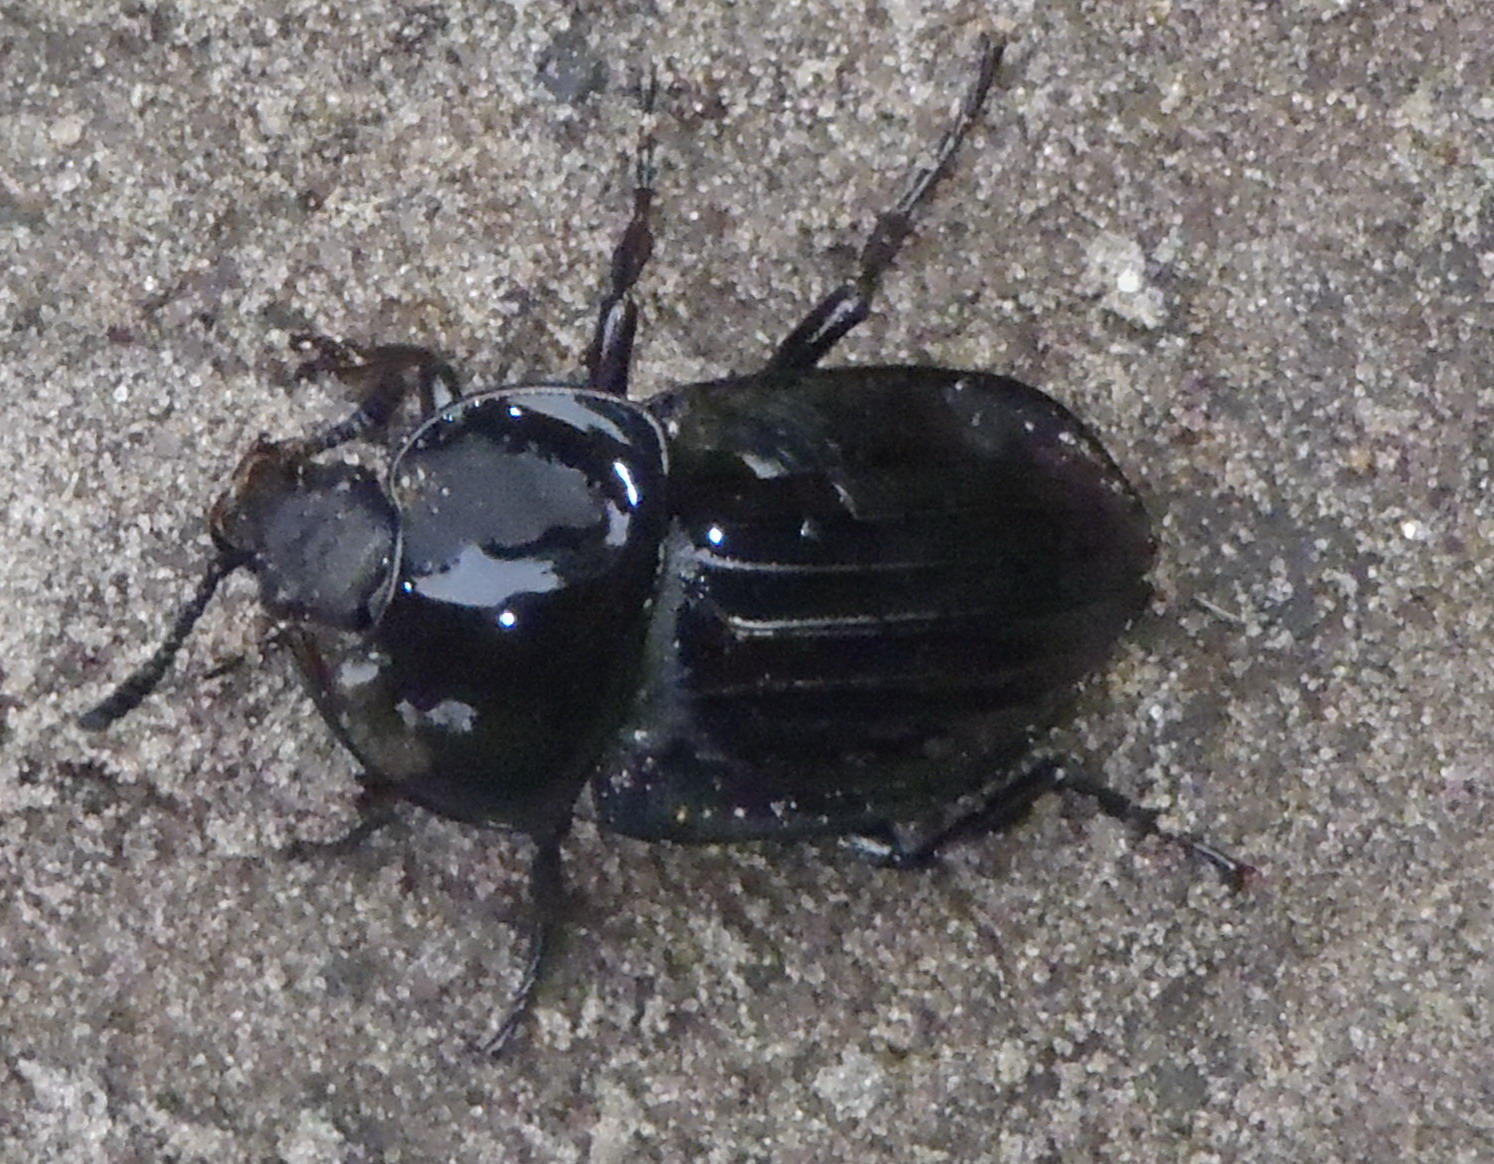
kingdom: Animalia
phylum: Arthropoda
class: Insecta
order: Coleoptera
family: Staphylinidae
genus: Silpha
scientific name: Silpha capicola
